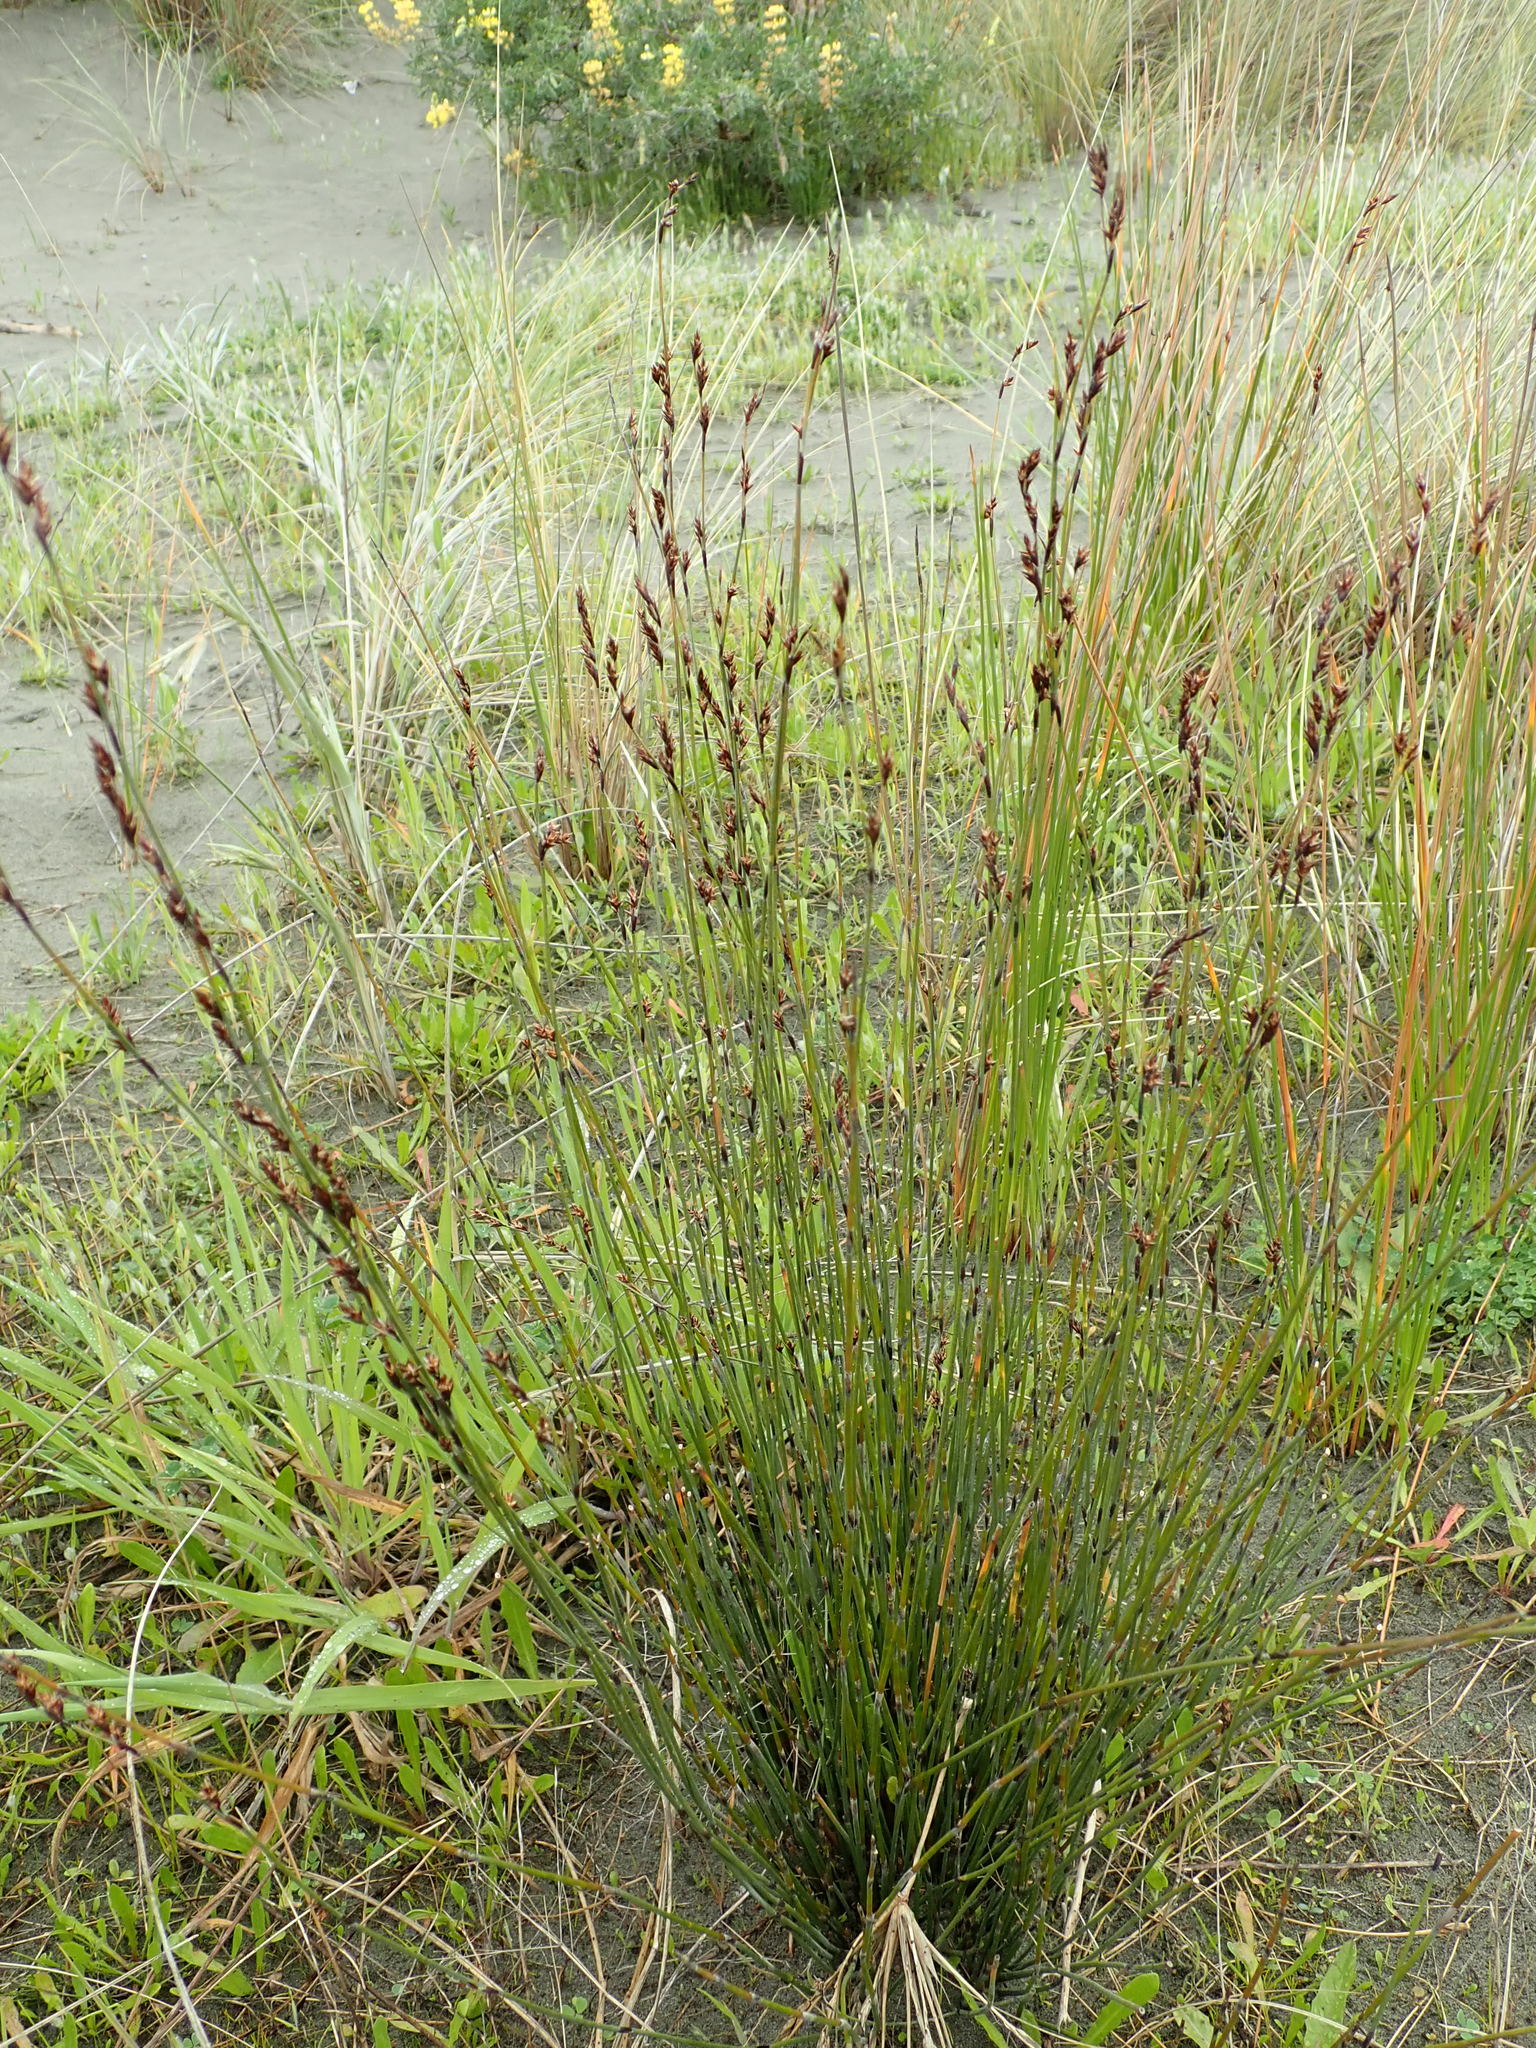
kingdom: Plantae
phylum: Tracheophyta
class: Liliopsida
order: Poales
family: Restionaceae
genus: Apodasmia
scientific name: Apodasmia similis
